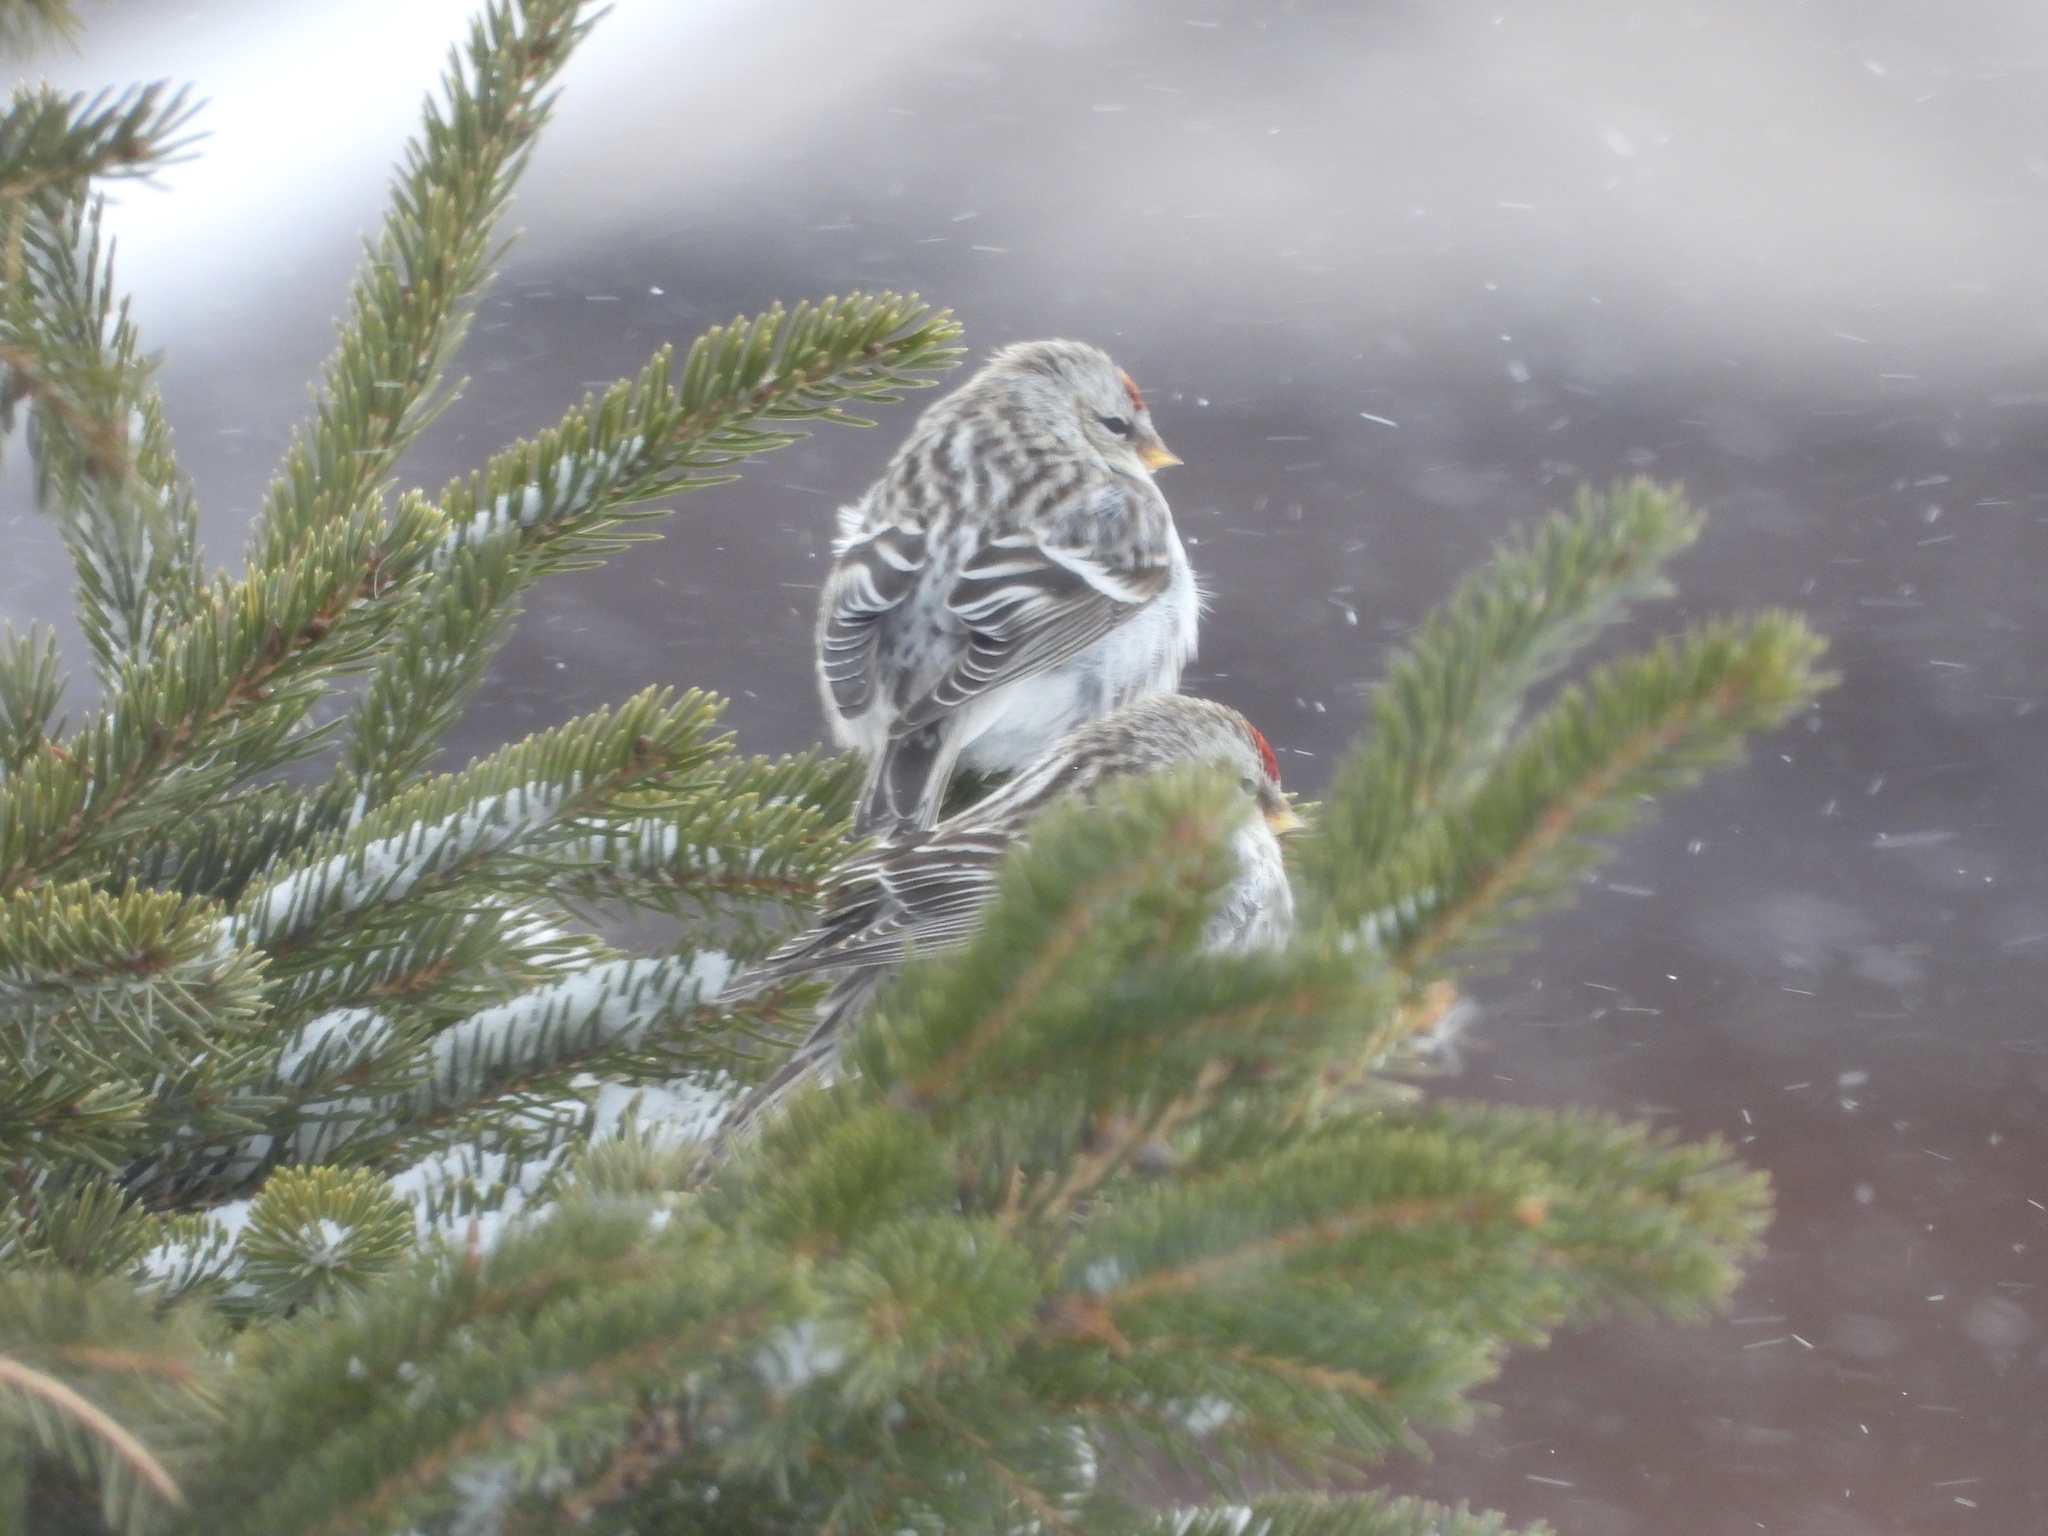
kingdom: Animalia
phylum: Chordata
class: Aves
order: Passeriformes
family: Fringillidae
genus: Acanthis
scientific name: Acanthis flammea
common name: Common redpoll
